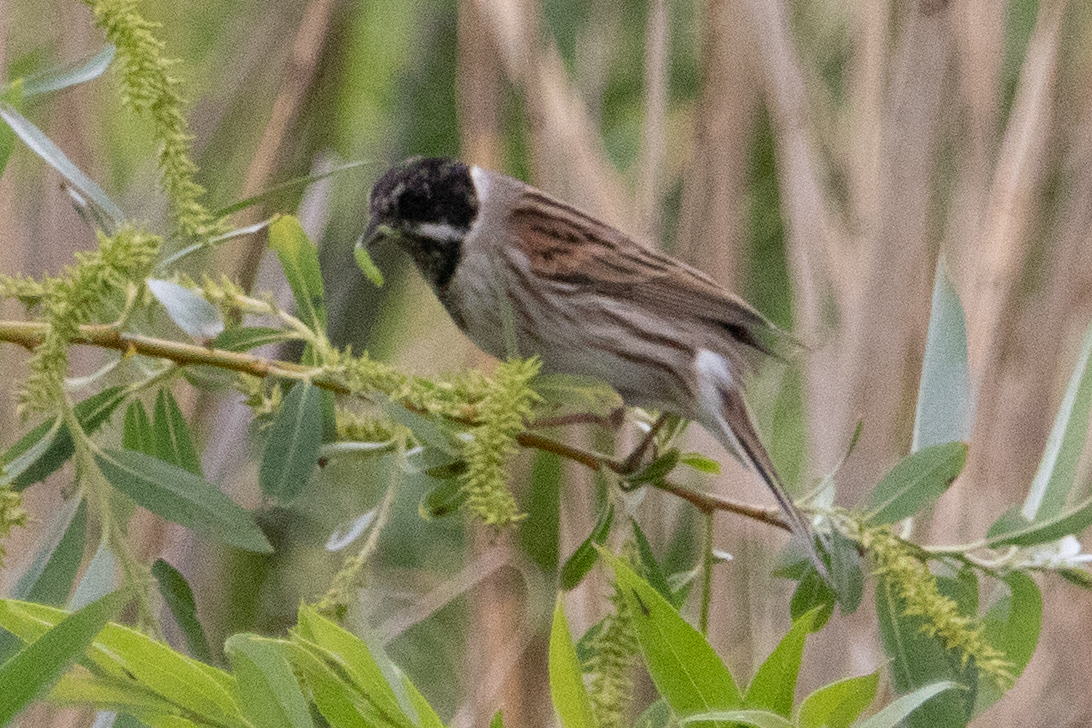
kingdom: Animalia
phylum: Chordata
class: Aves
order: Passeriformes
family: Emberizidae
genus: Emberiza
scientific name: Emberiza schoeniclus
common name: Reed bunting
